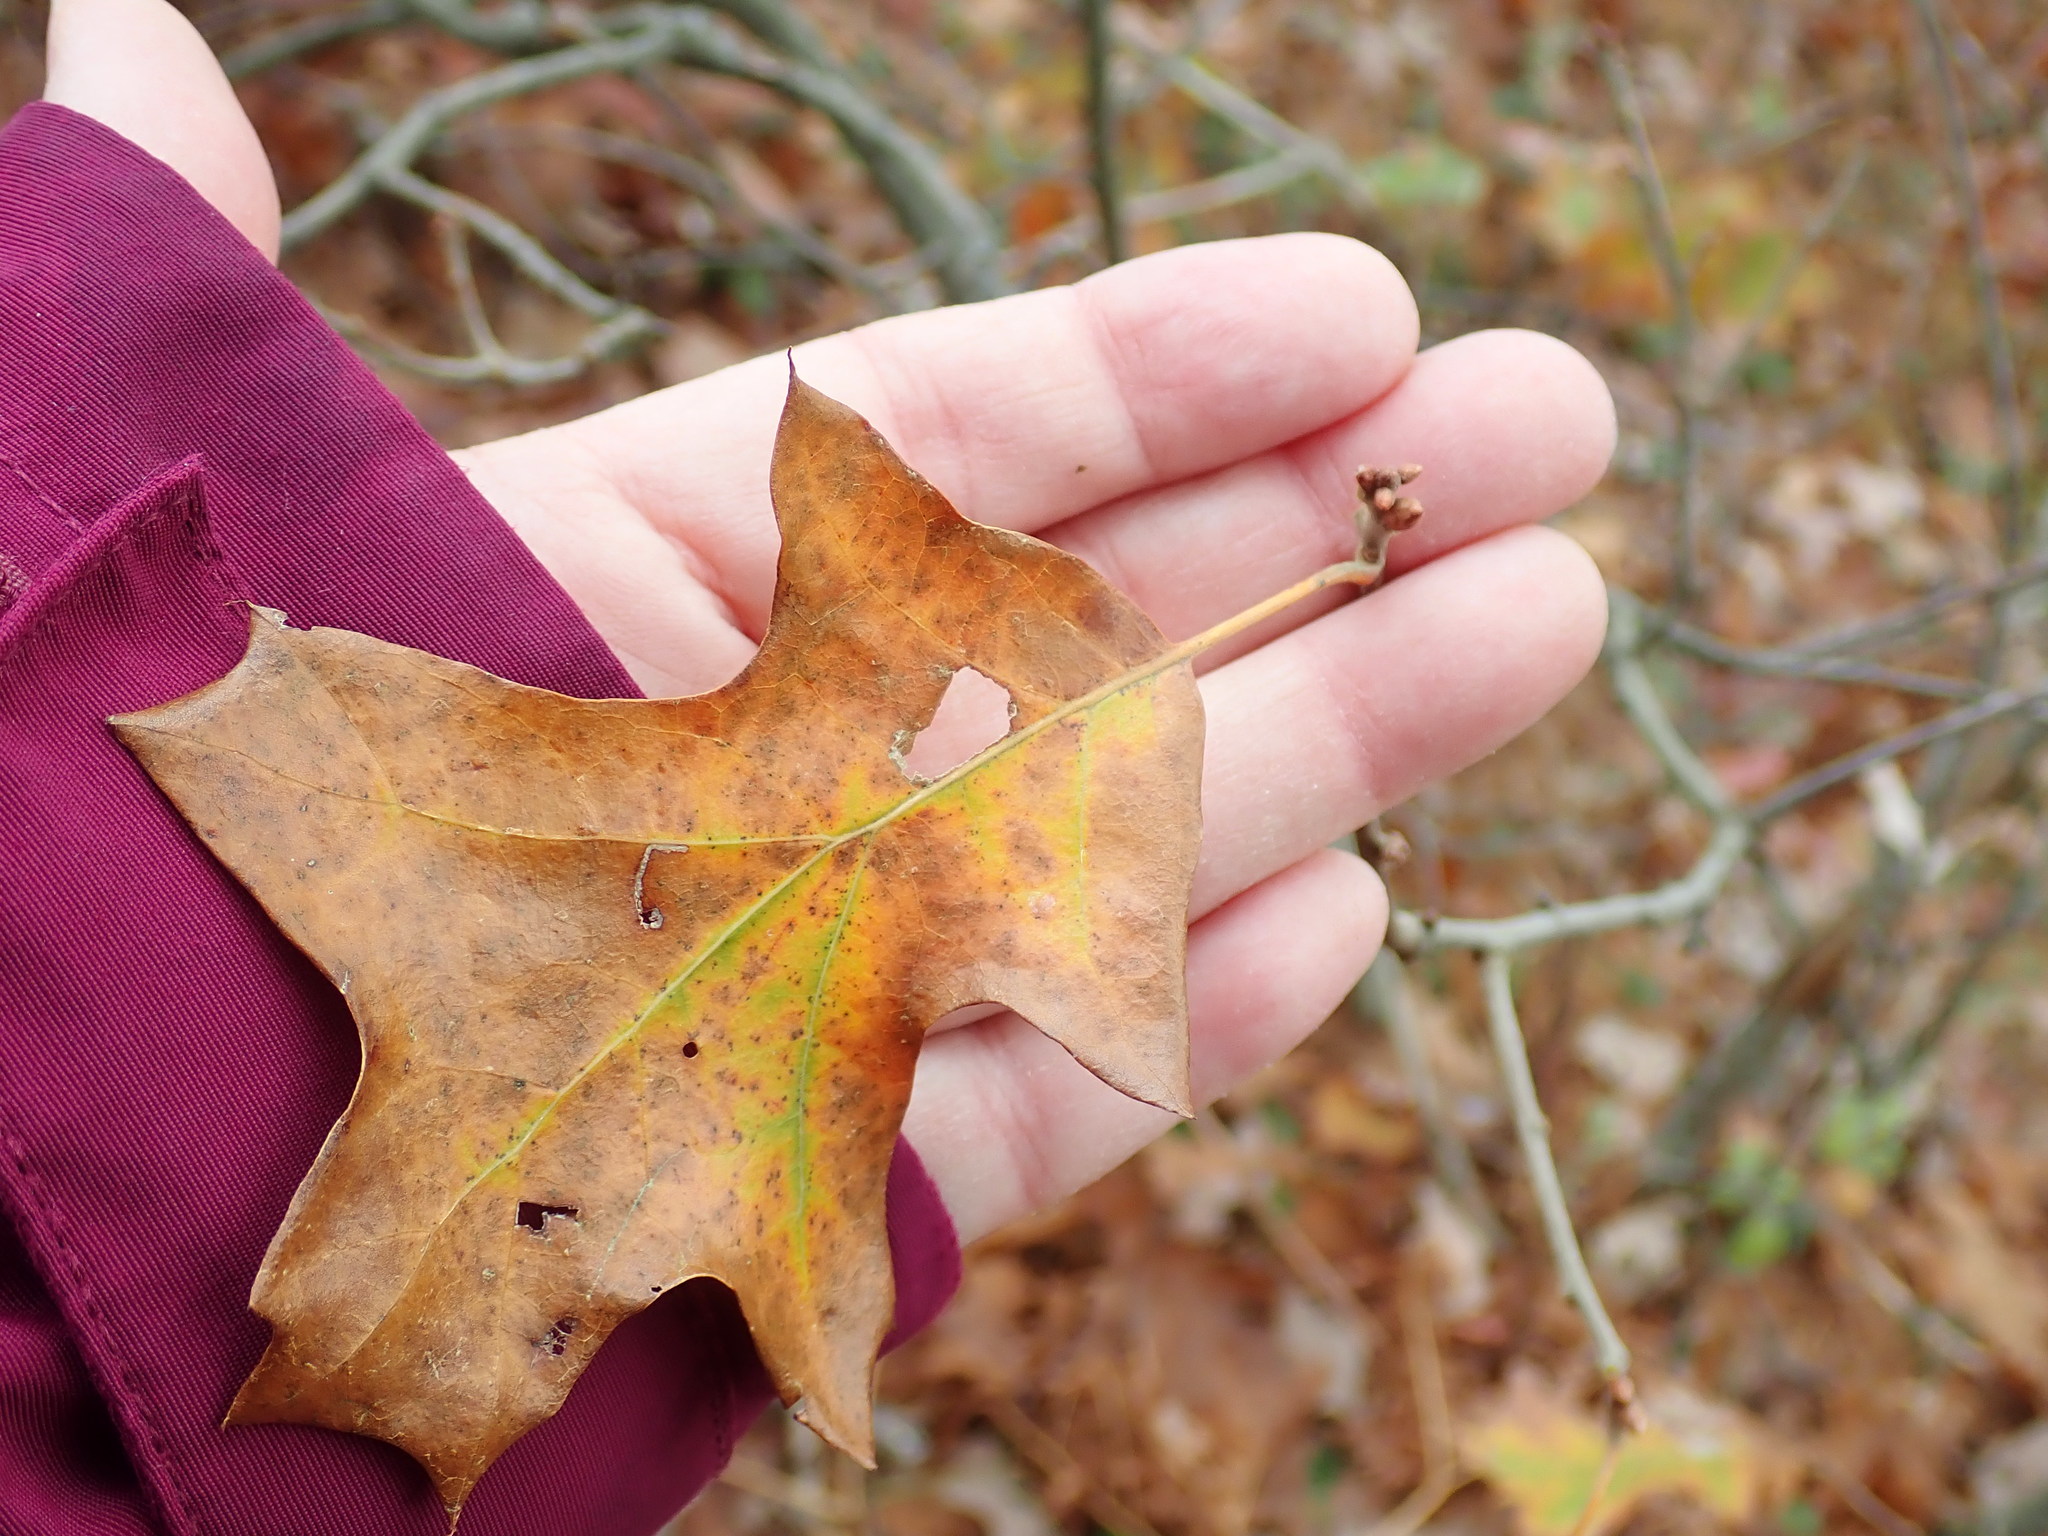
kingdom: Plantae
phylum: Tracheophyta
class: Magnoliopsida
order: Fagales
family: Fagaceae
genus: Quercus
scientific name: Quercus ilicifolia
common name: Bear oak
